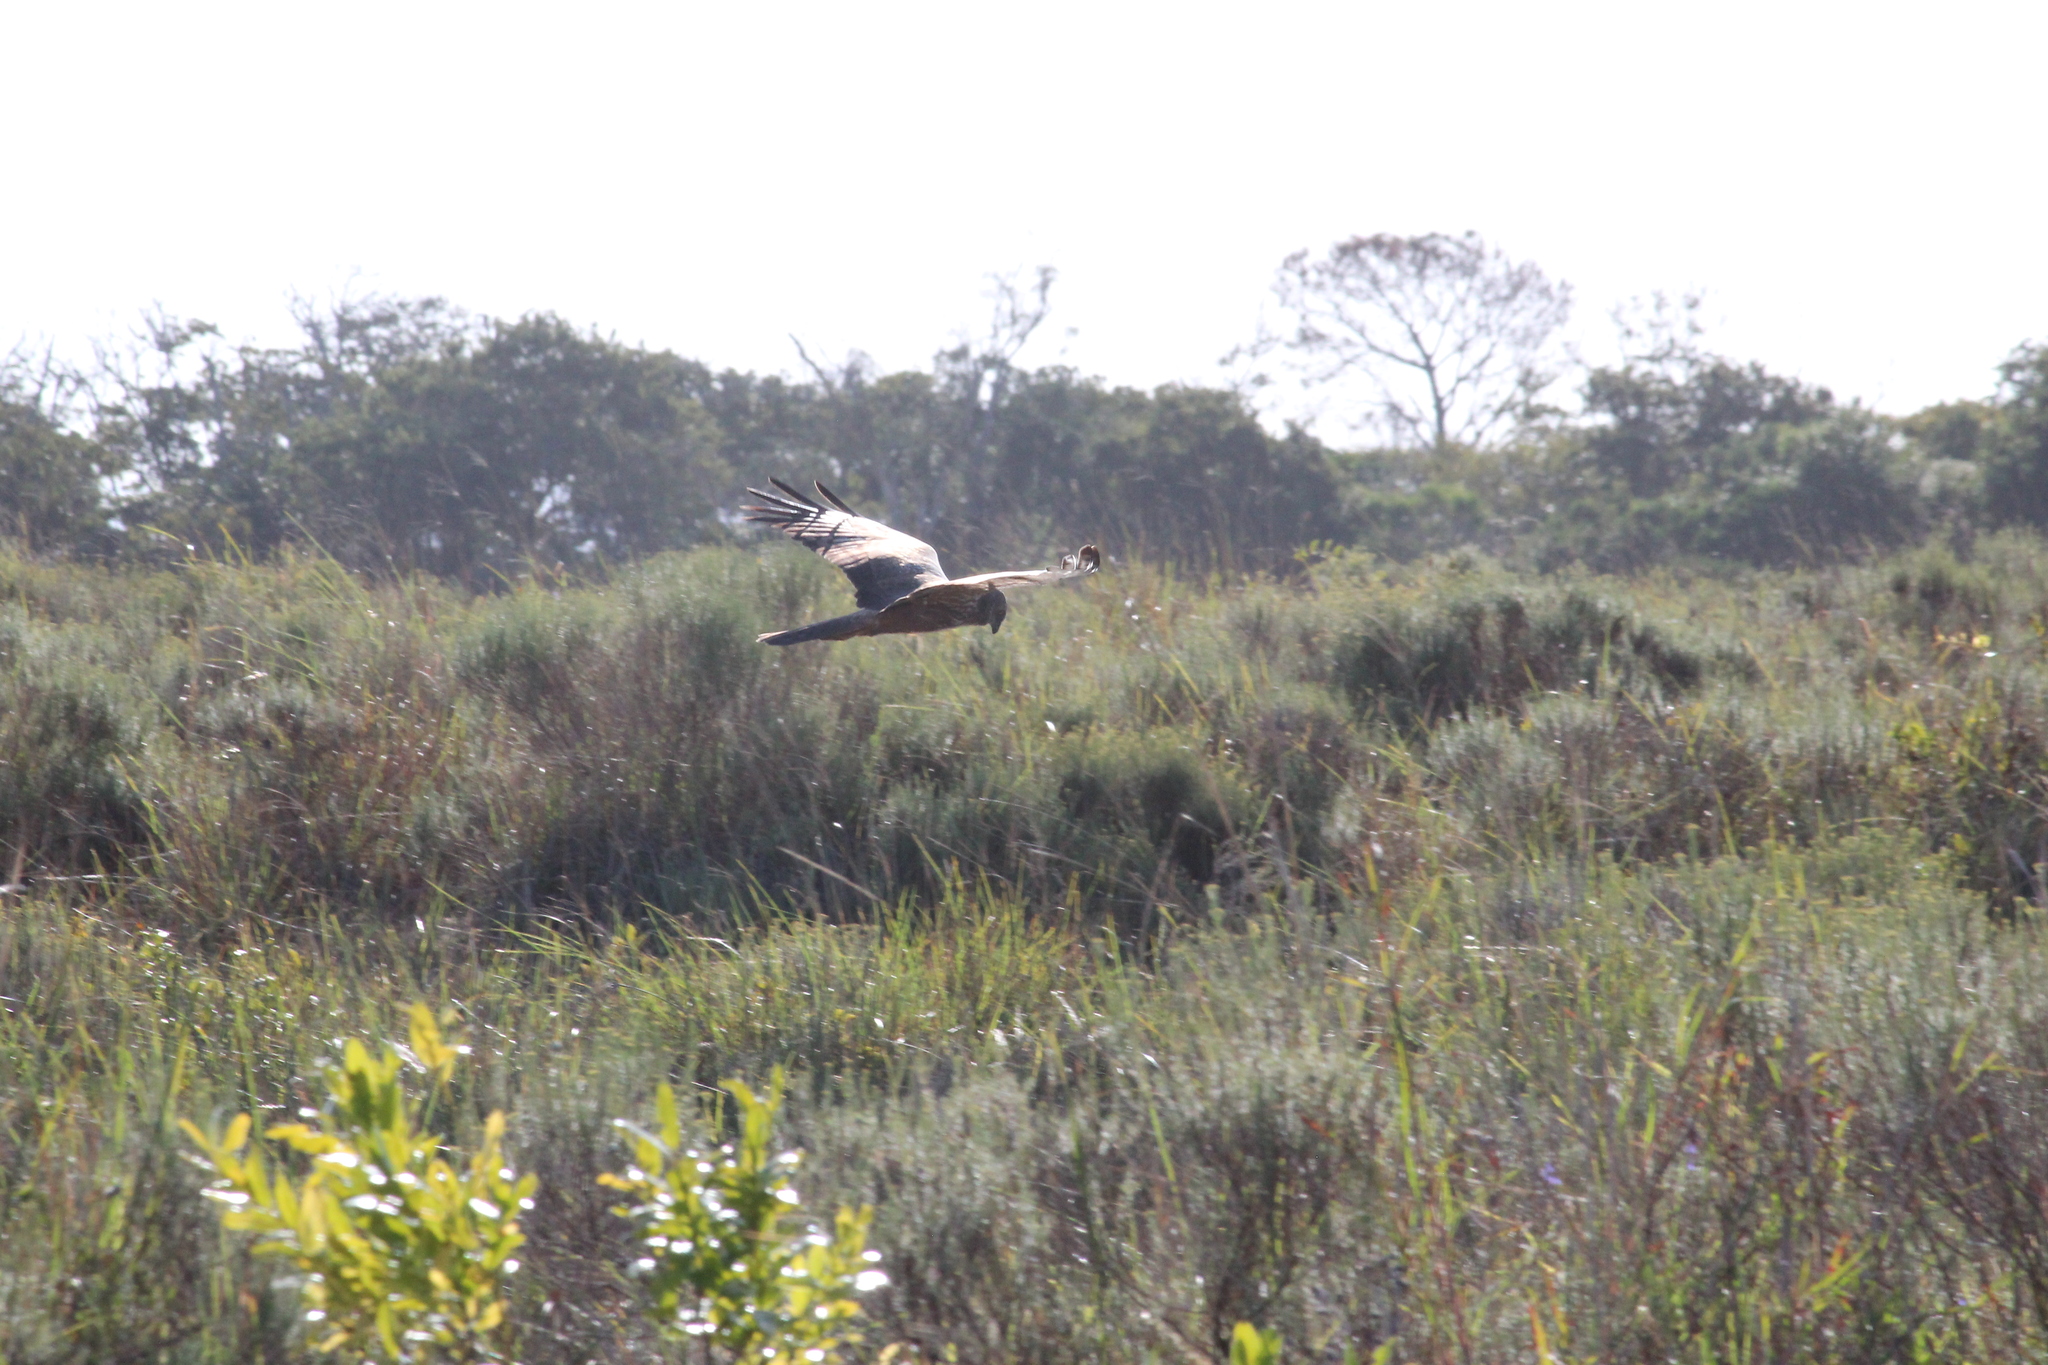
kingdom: Animalia
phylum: Chordata
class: Aves
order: Accipitriformes
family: Accipitridae
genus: Circus
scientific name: Circus ranivorus
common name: African marsh-harrier
